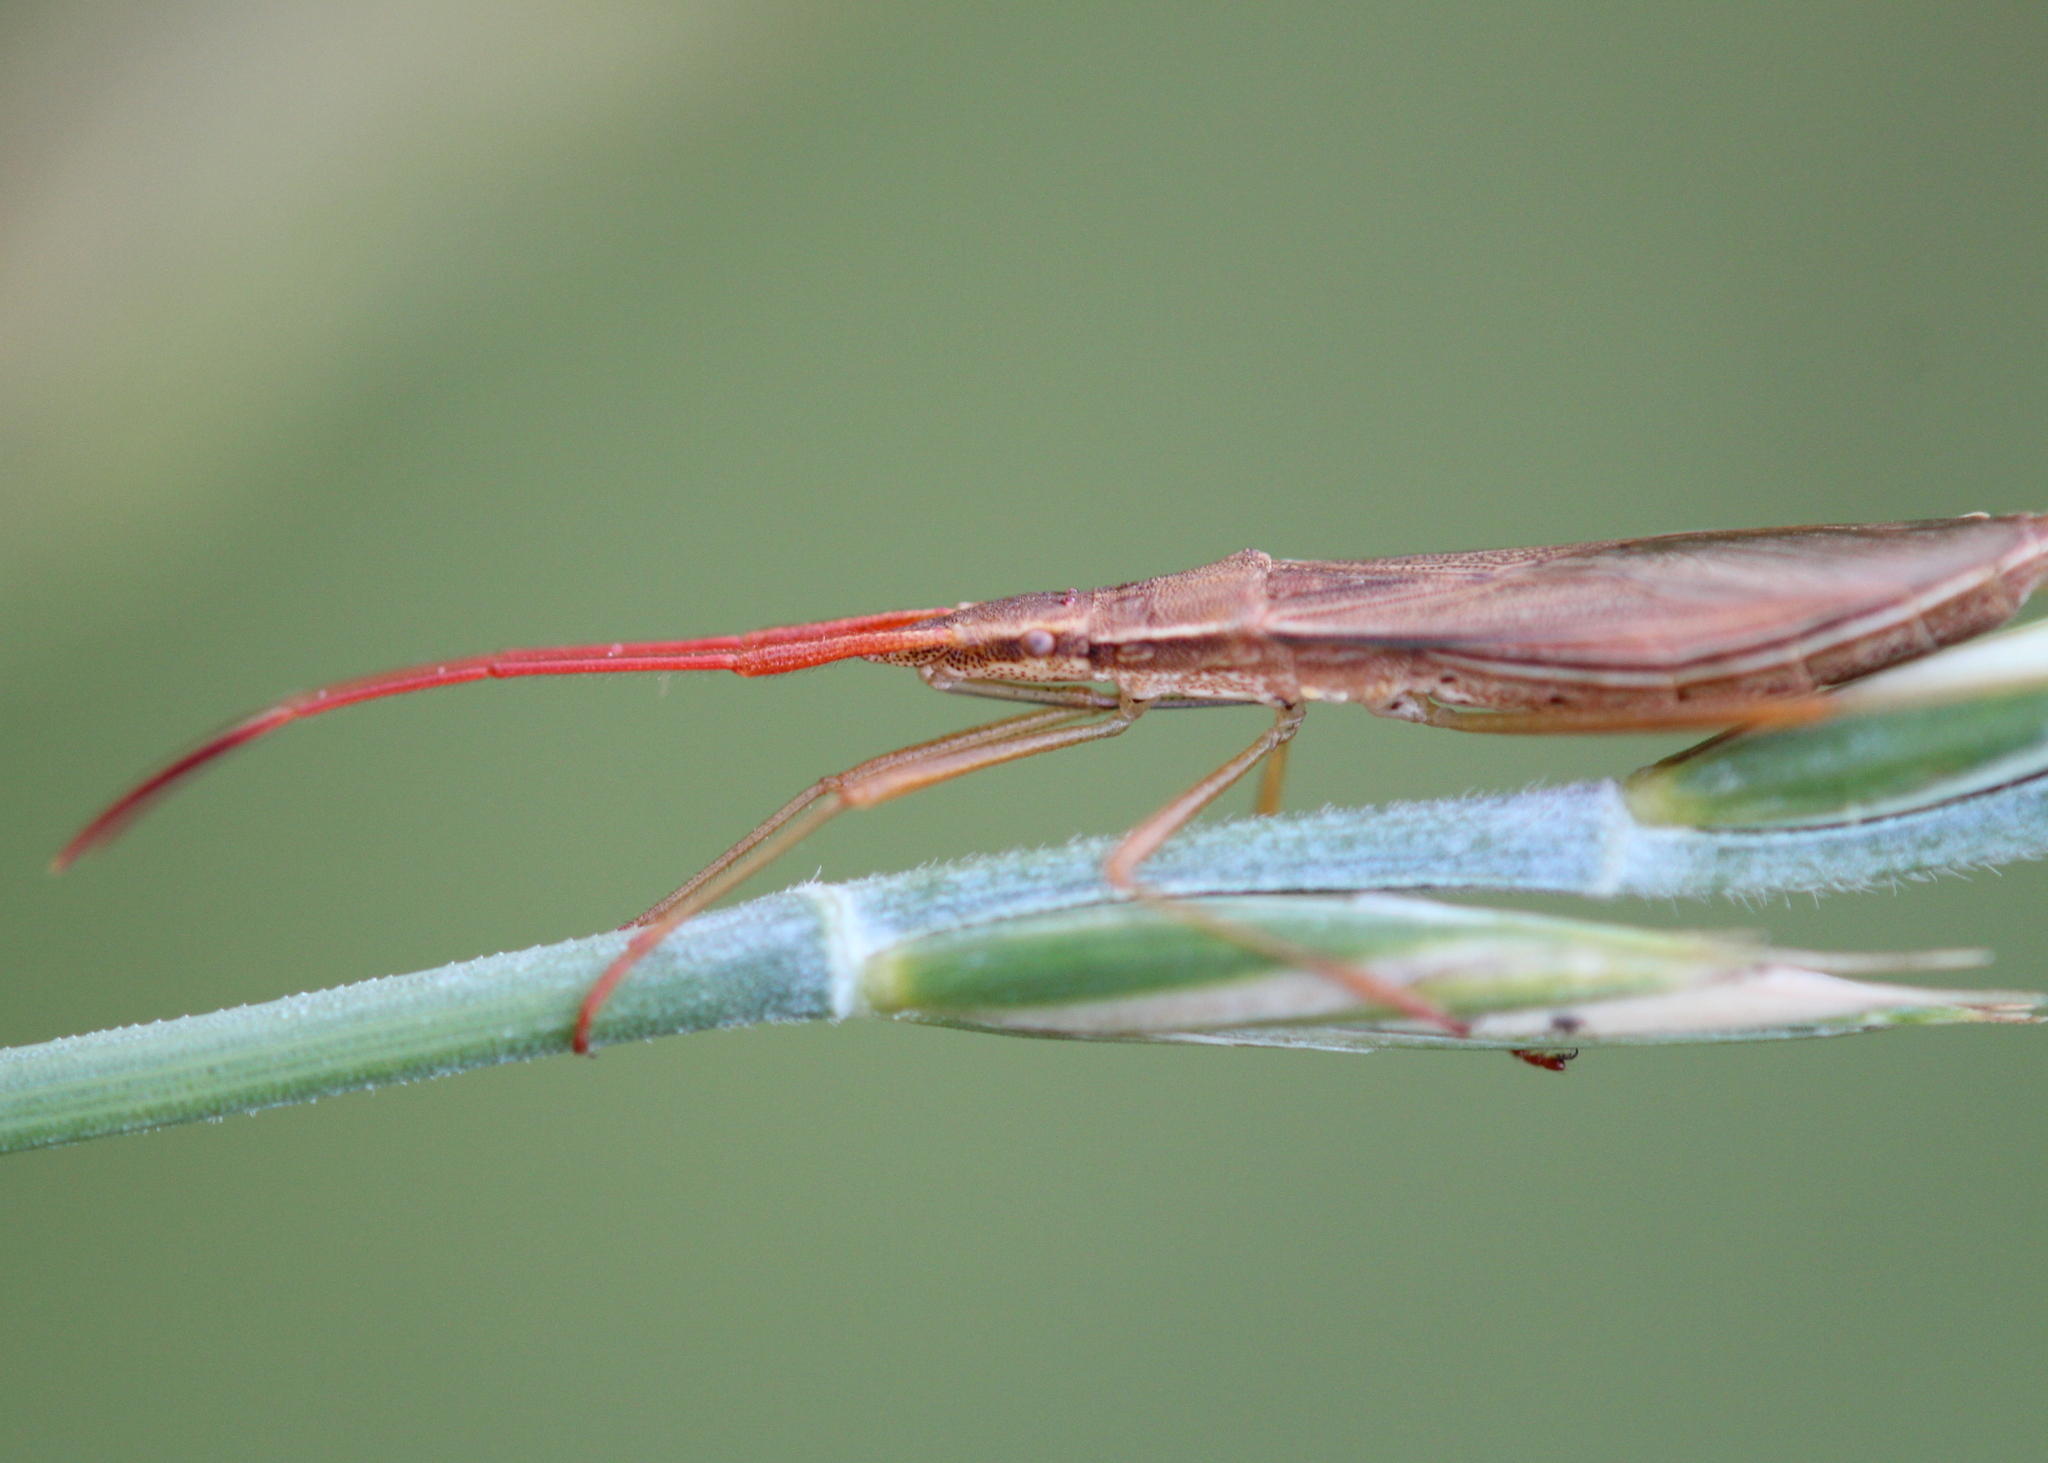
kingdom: Animalia
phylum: Arthropoda
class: Insecta
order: Hemiptera
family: Alydidae
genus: Protenor
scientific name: Protenor belfragei
